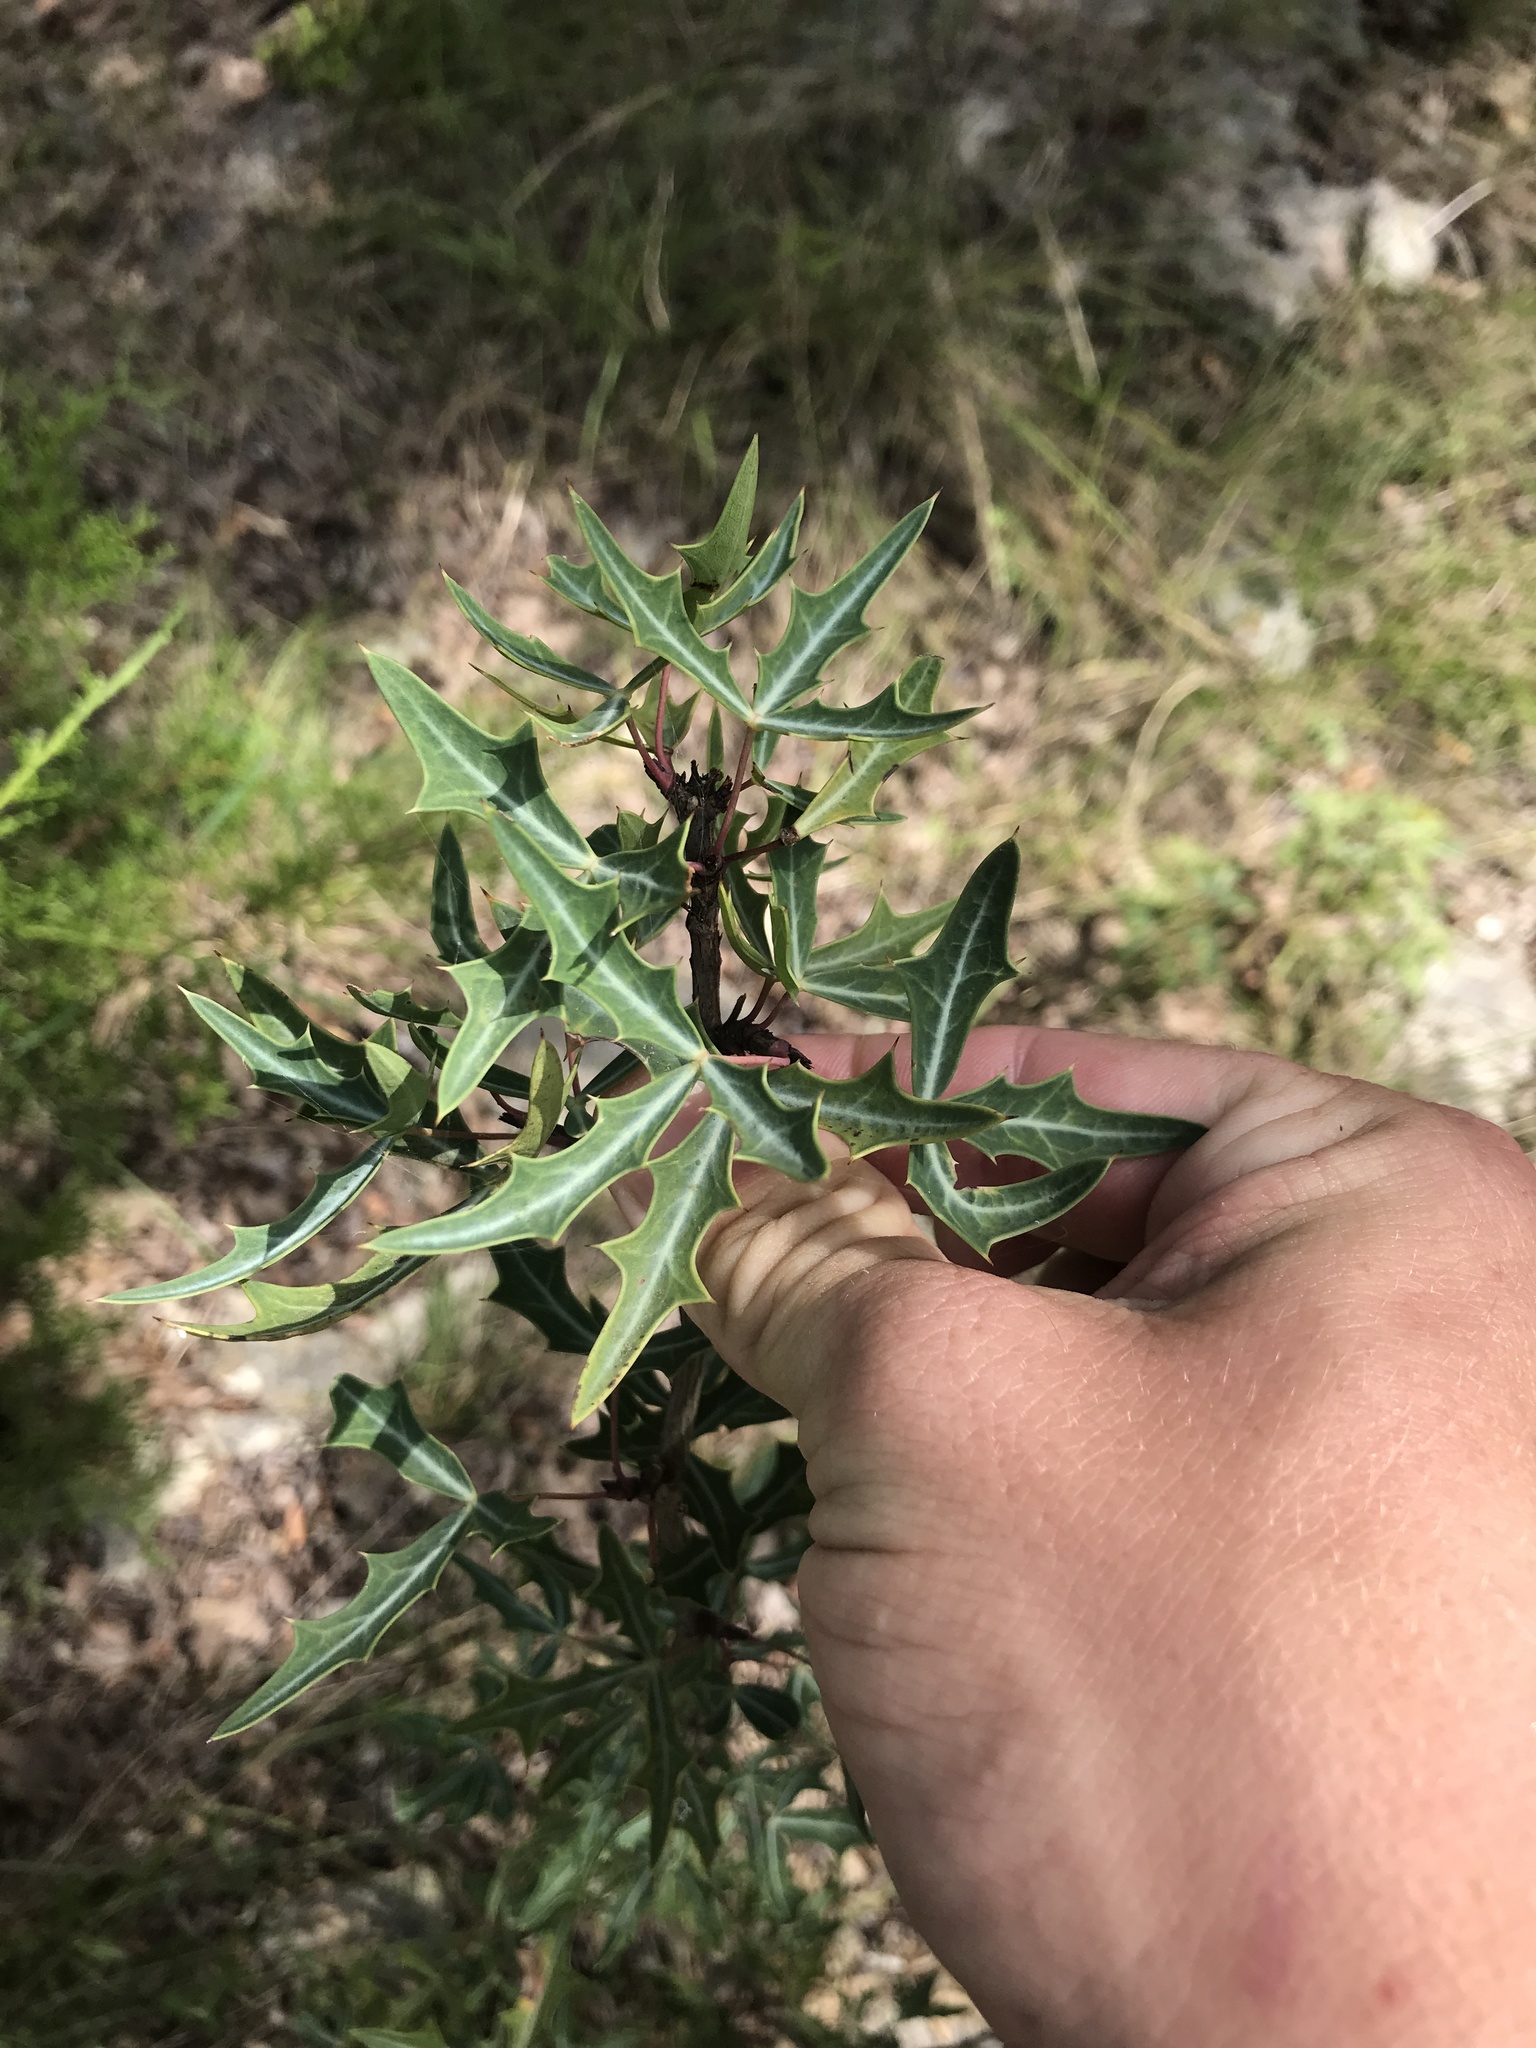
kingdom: Plantae
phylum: Tracheophyta
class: Magnoliopsida
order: Ranunculales
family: Berberidaceae
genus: Alloberberis
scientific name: Alloberberis trifoliolata
